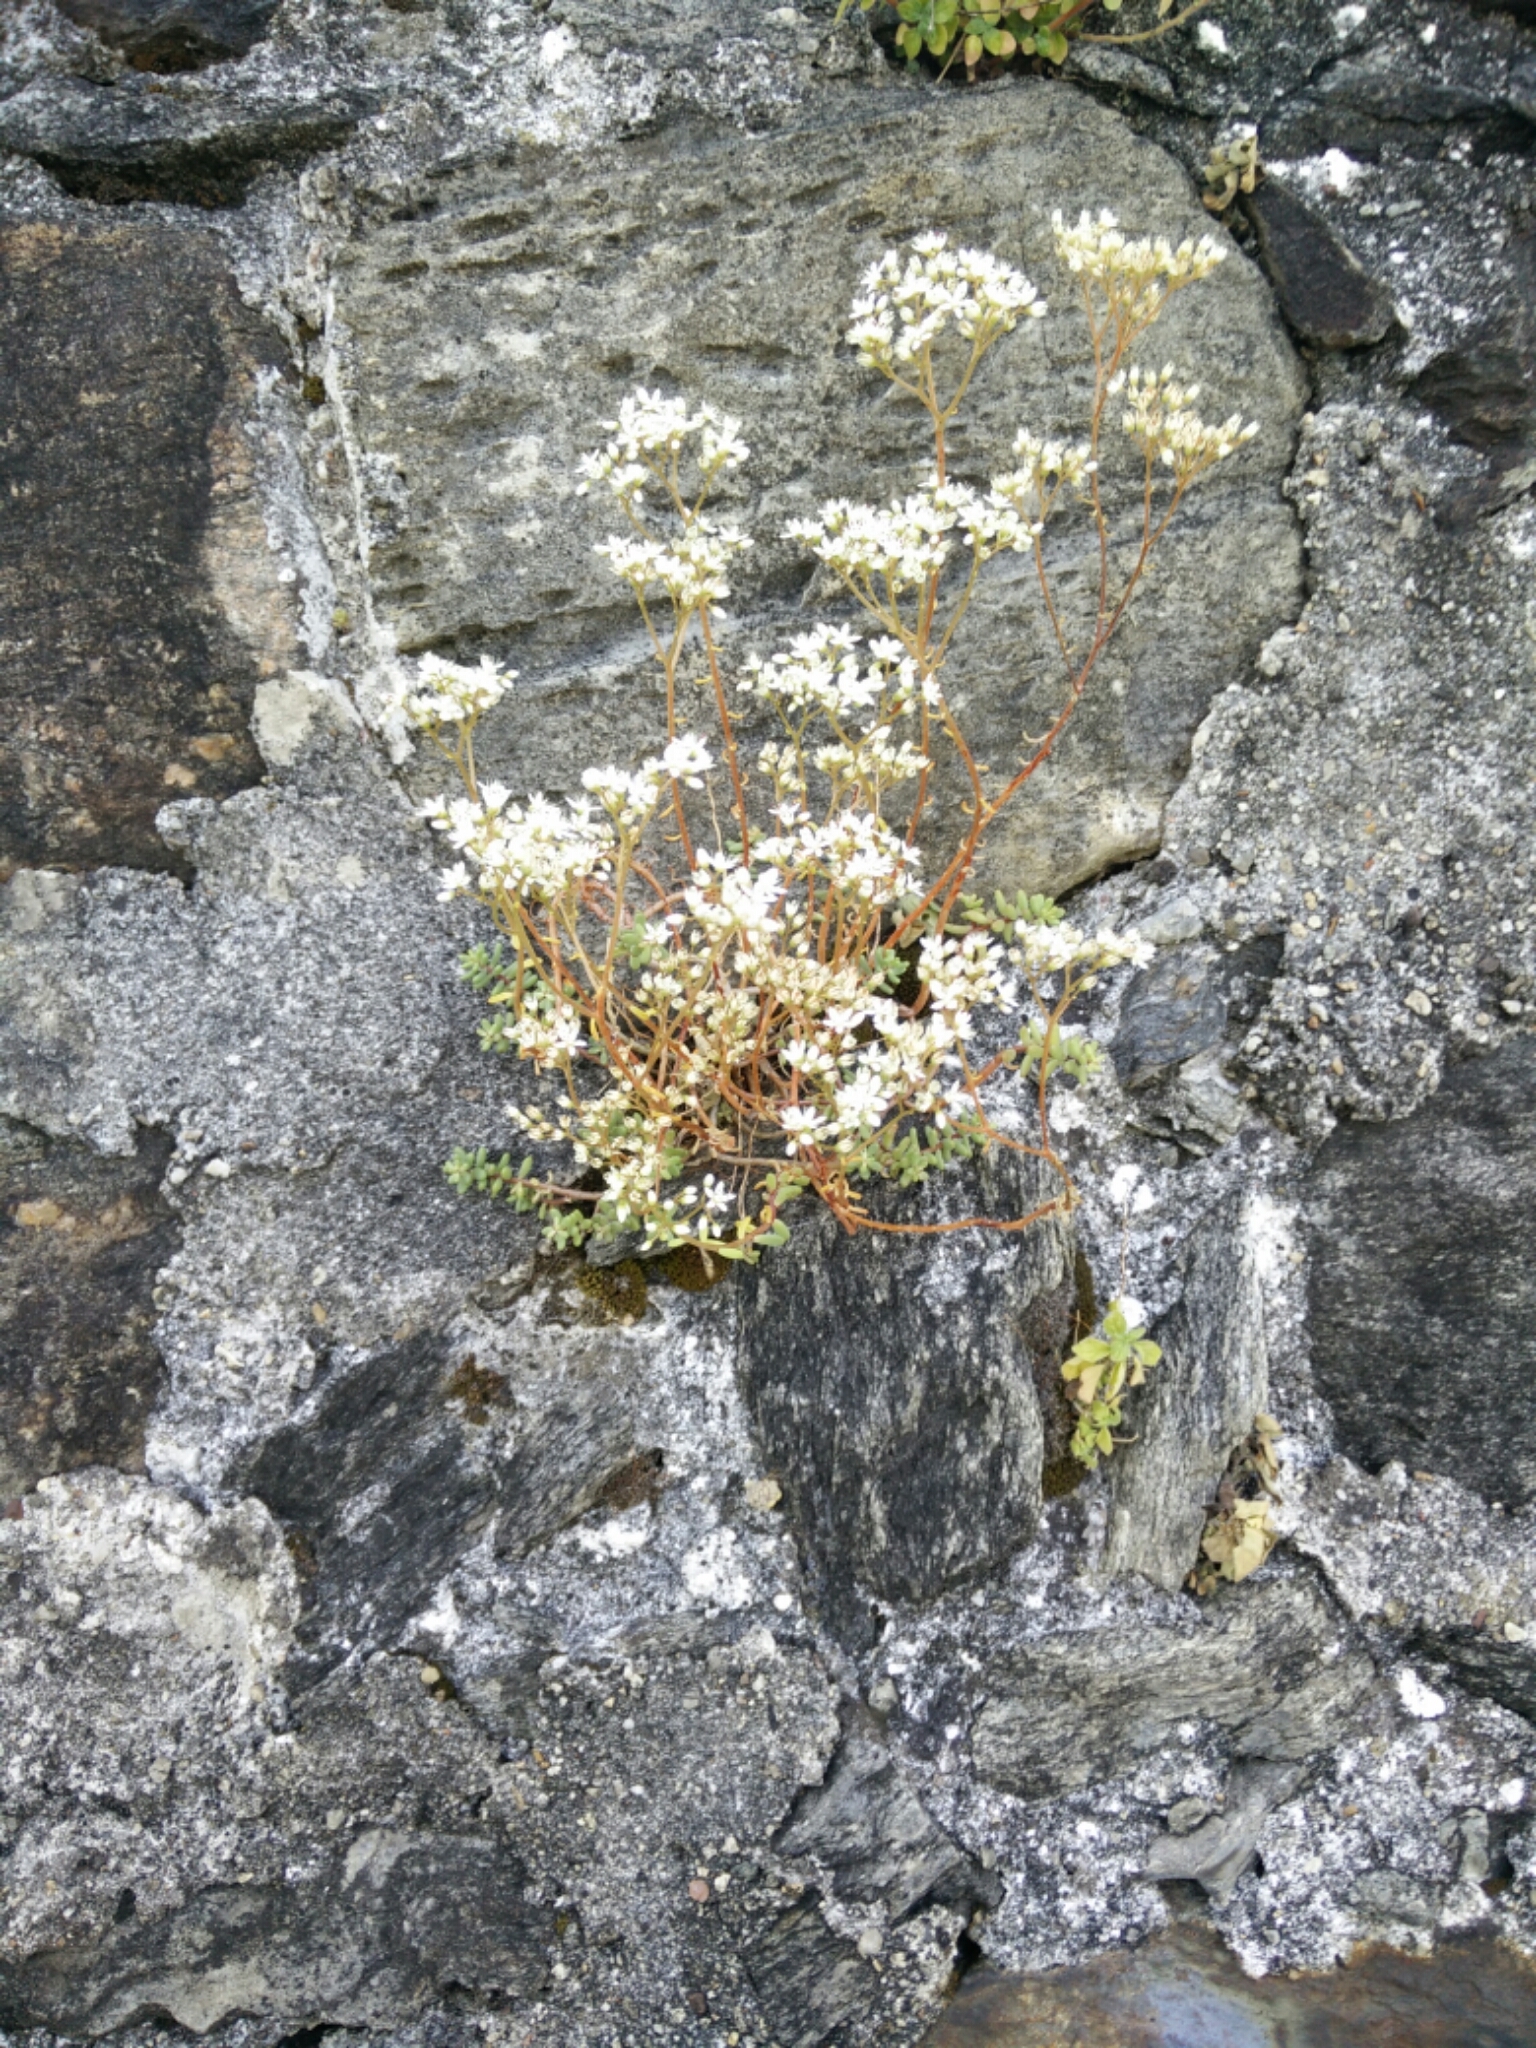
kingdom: Plantae
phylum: Tracheophyta
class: Magnoliopsida
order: Saxifragales
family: Crassulaceae
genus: Sedum
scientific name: Sedum album
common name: White stonecrop
